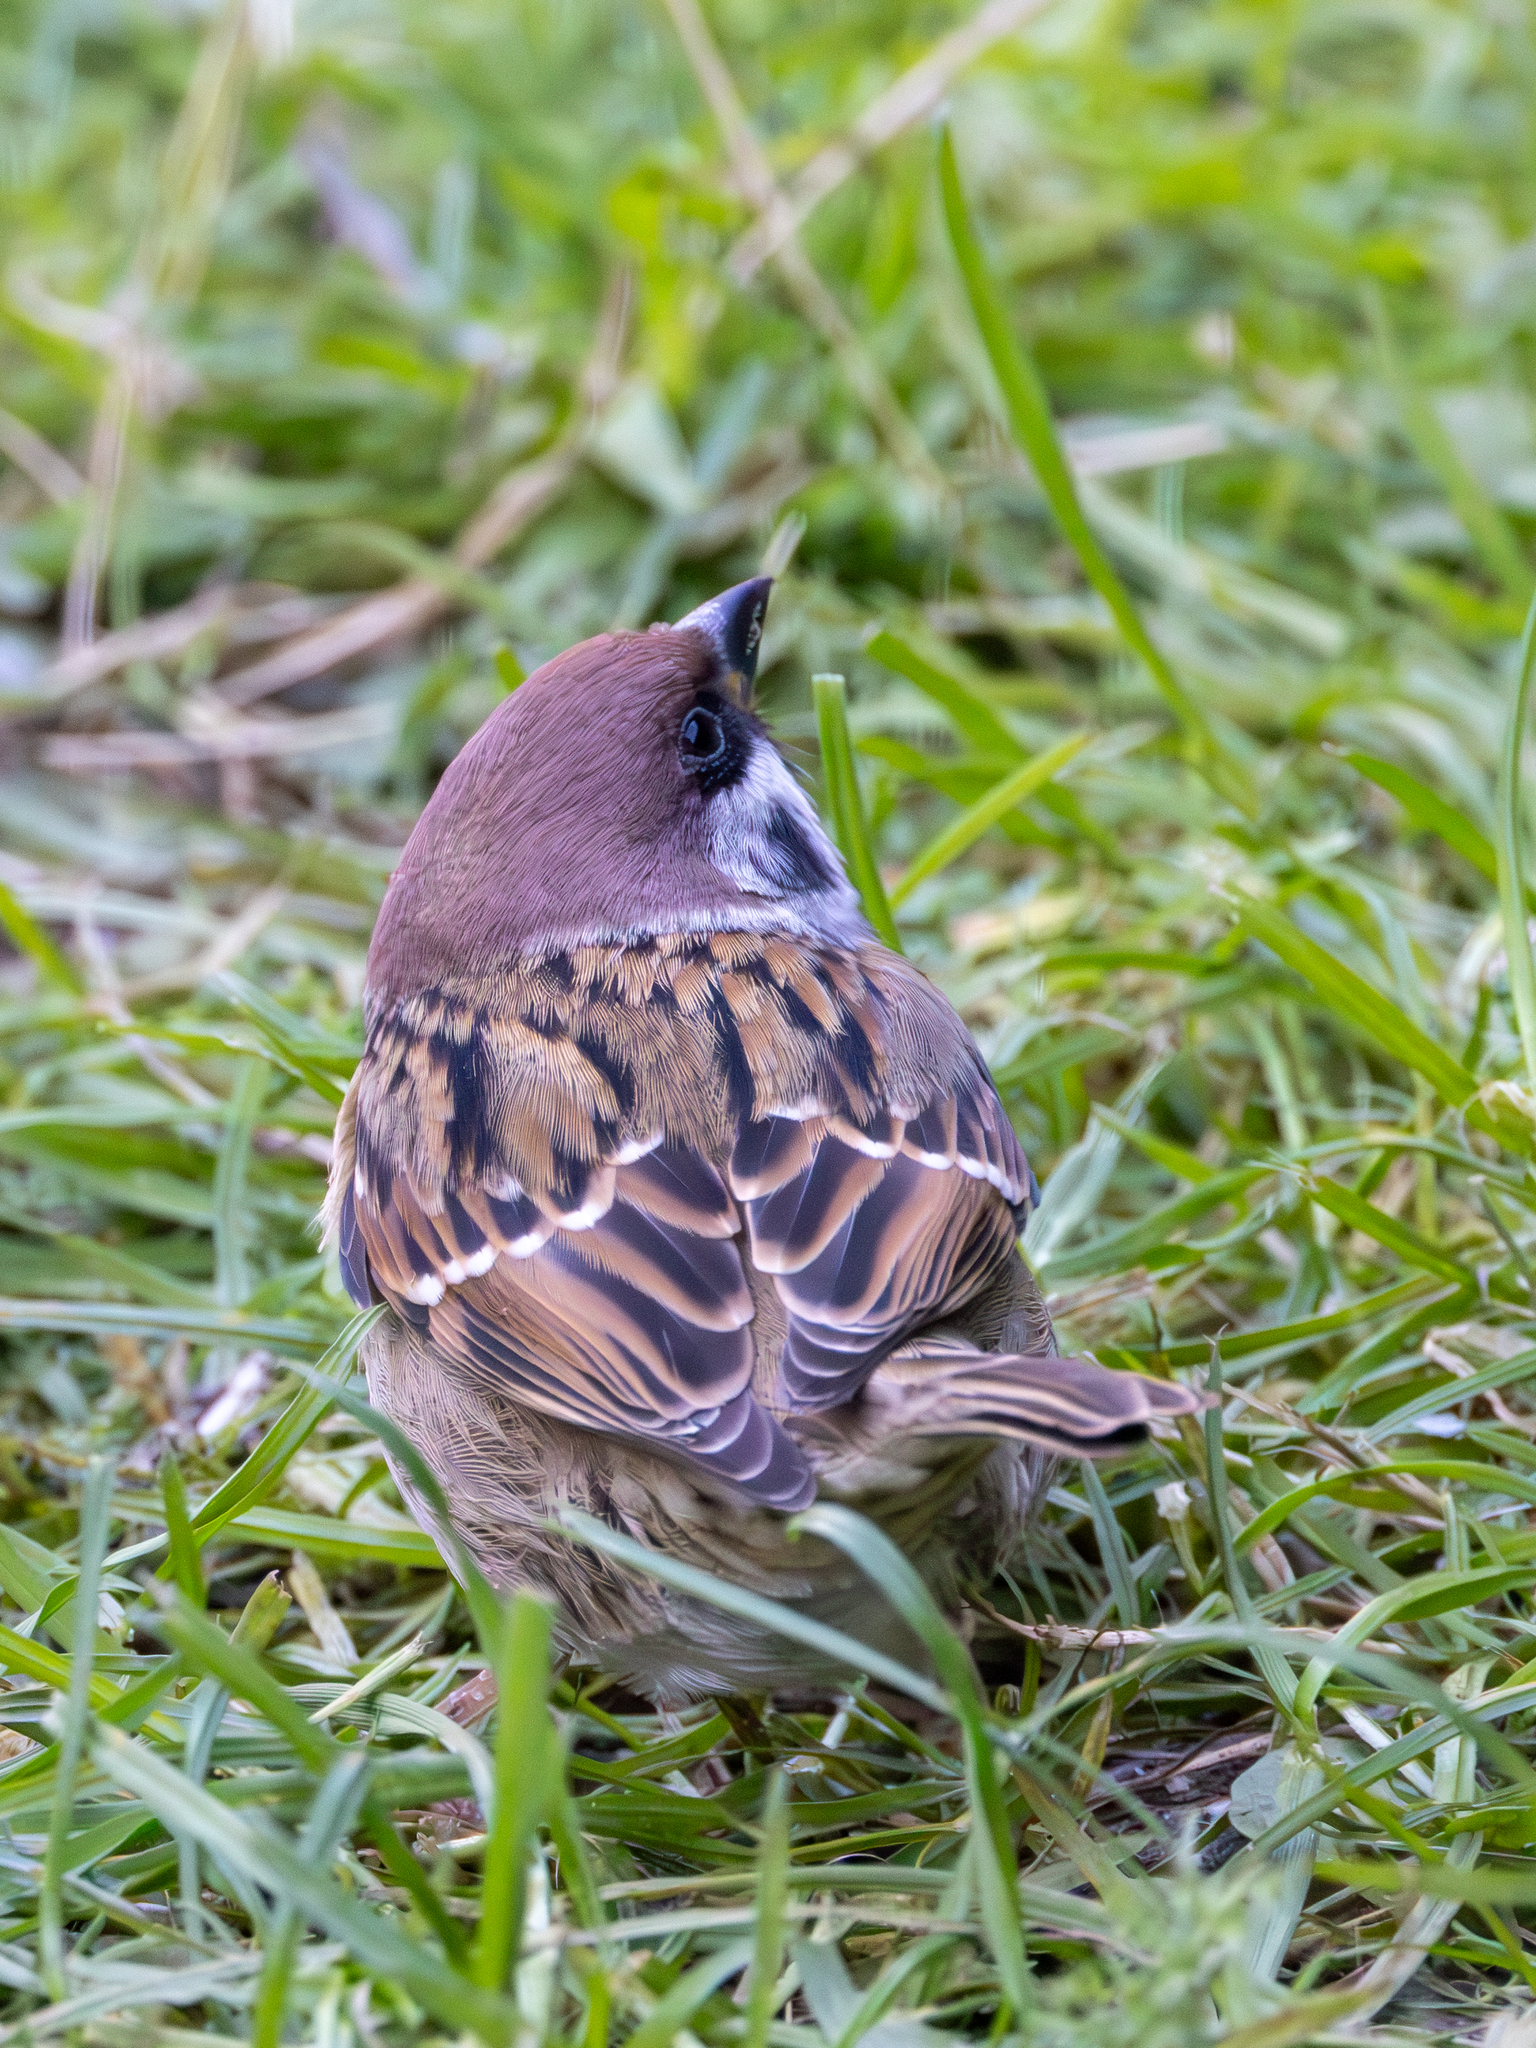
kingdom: Animalia
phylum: Chordata
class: Aves
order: Passeriformes
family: Passeridae
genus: Passer
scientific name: Passer montanus
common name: Eurasian tree sparrow
